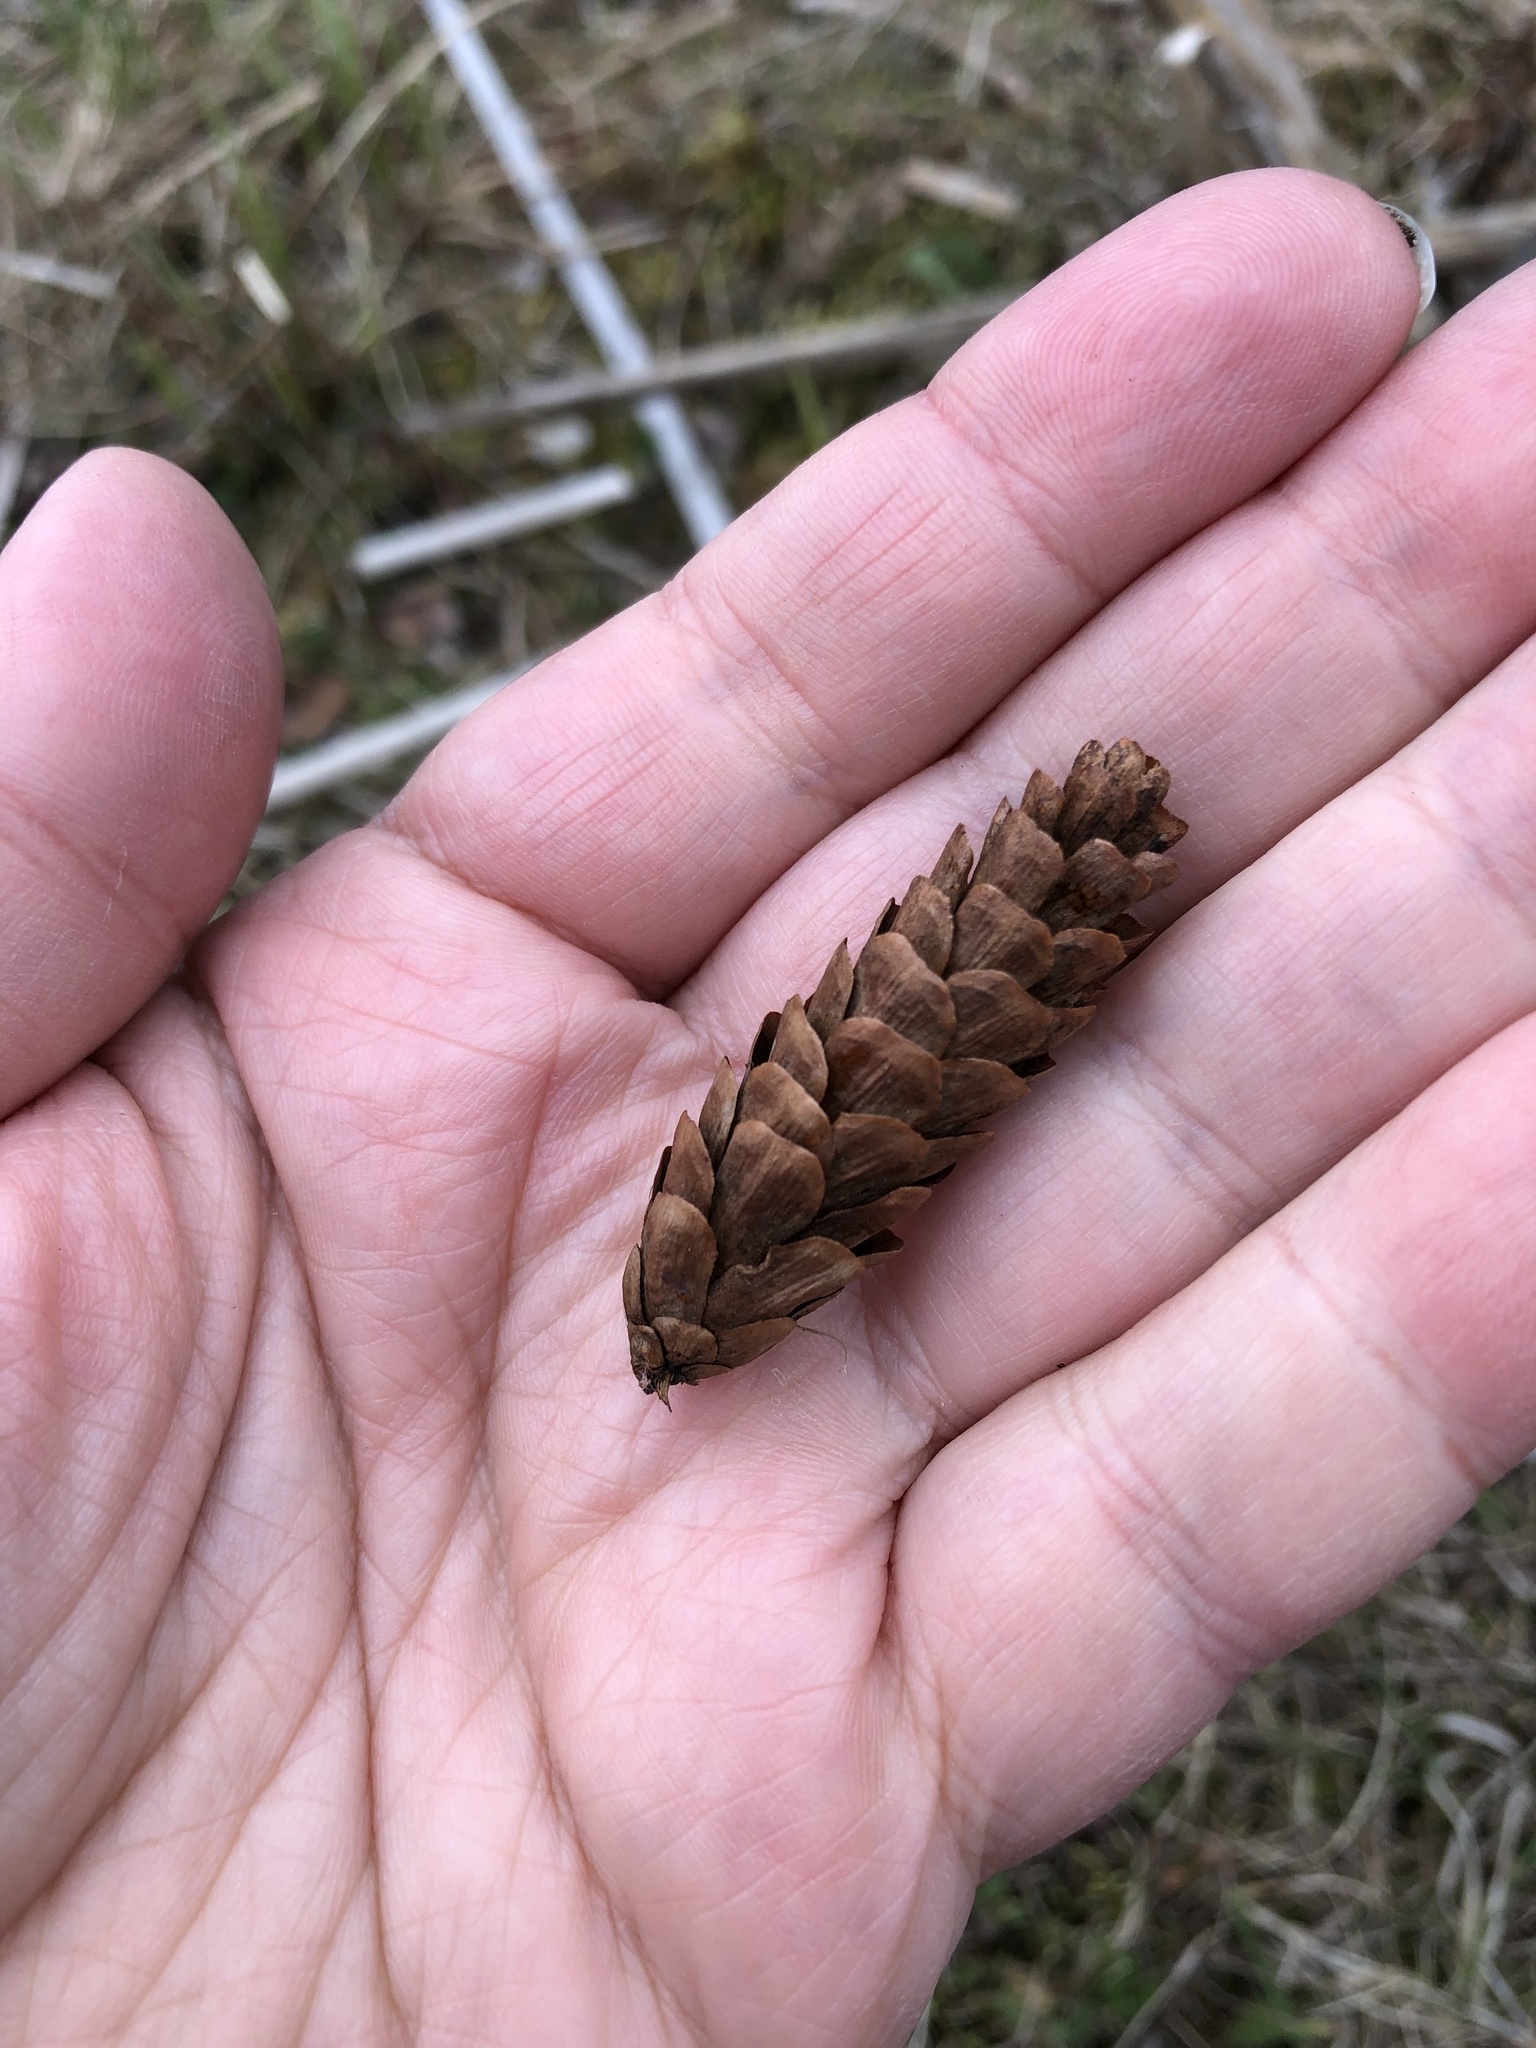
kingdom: Plantae
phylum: Tracheophyta
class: Pinopsida
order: Pinales
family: Pinaceae
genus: Picea
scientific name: Picea glauca
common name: White spruce
